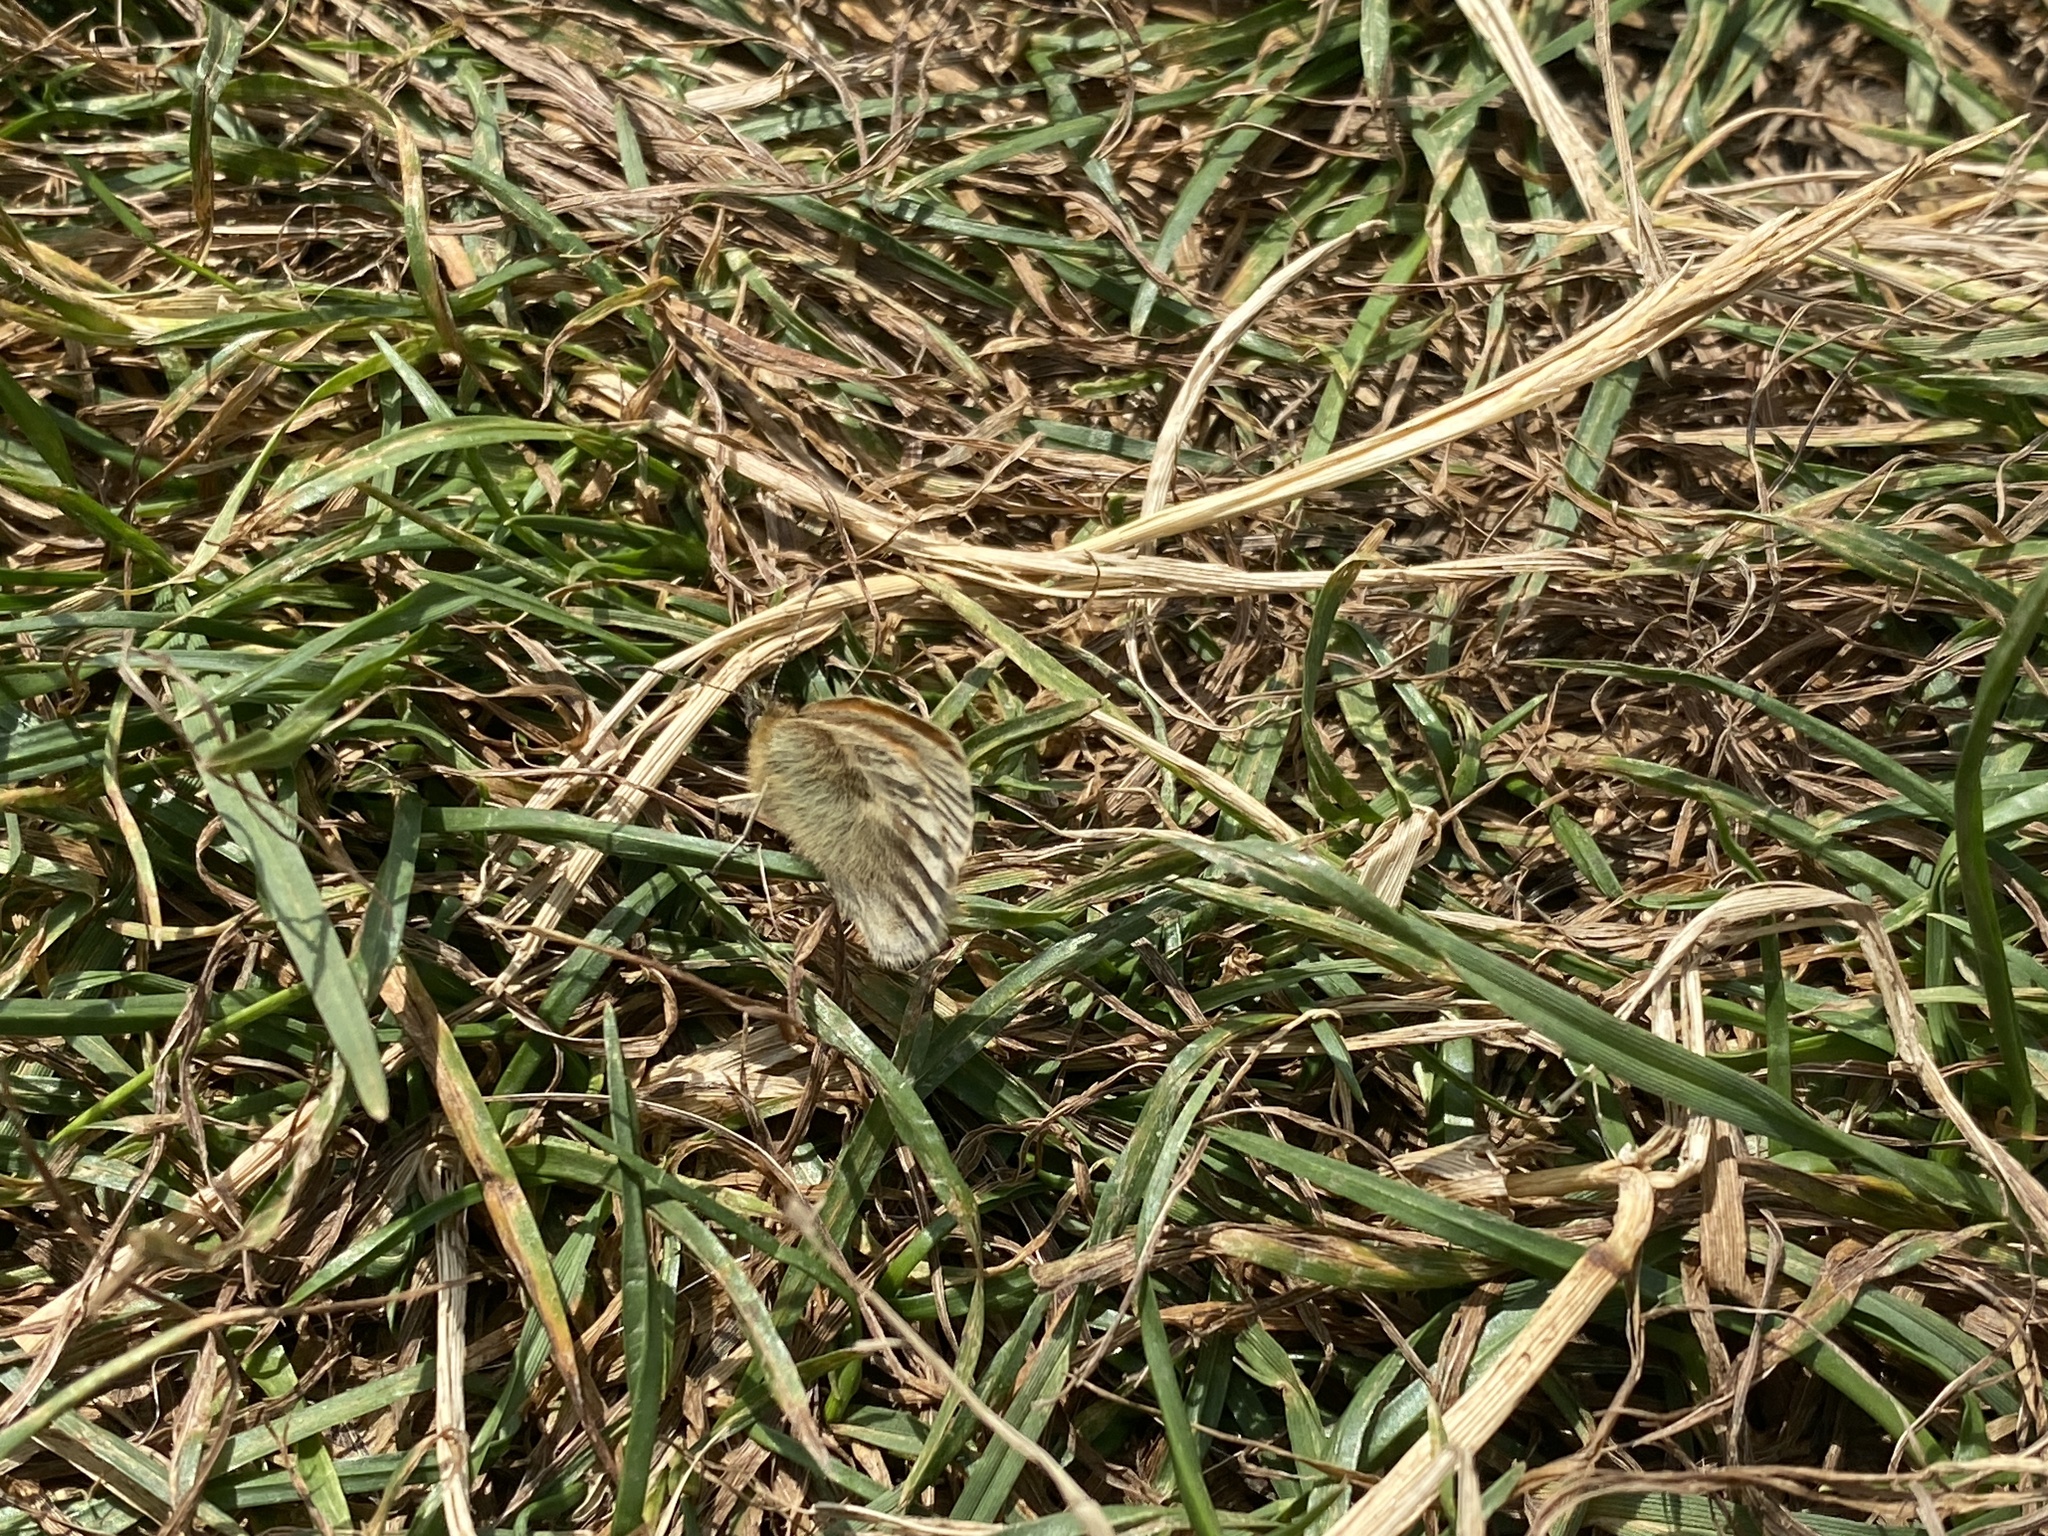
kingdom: Animalia
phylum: Arthropoda
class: Insecta
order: Lepidoptera
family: Nymphalidae
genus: Coenonympha
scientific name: Coenonympha pamphilus
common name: Small heath
